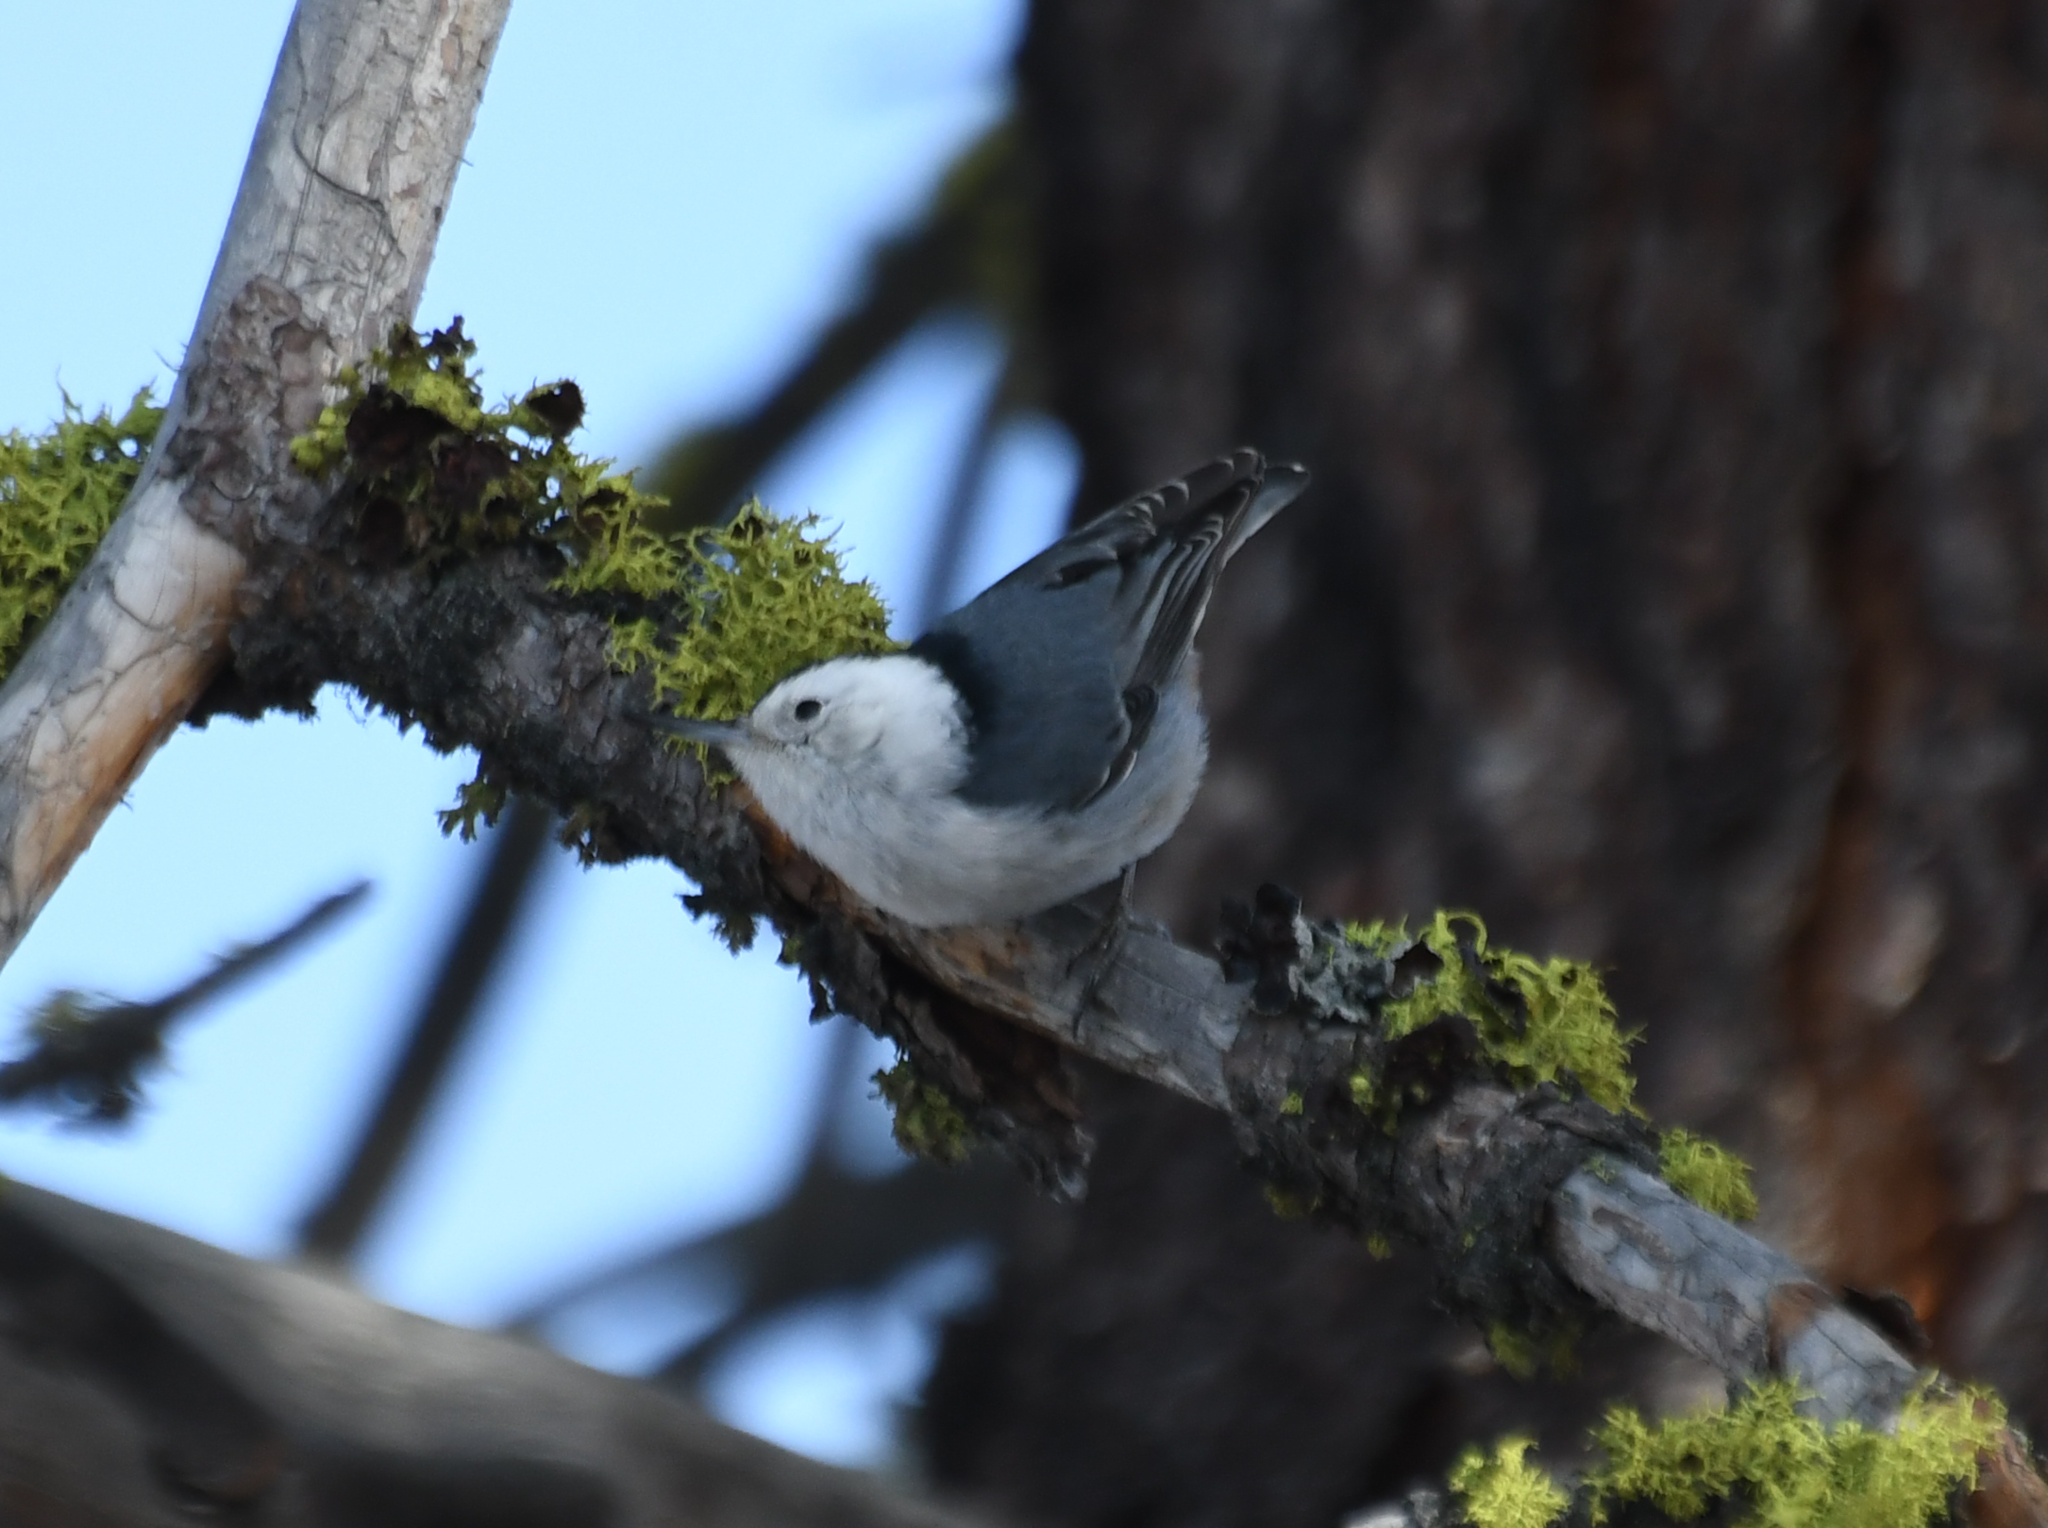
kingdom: Animalia
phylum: Chordata
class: Aves
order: Passeriformes
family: Sittidae
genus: Sitta
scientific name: Sitta carolinensis
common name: White-breasted nuthatch
